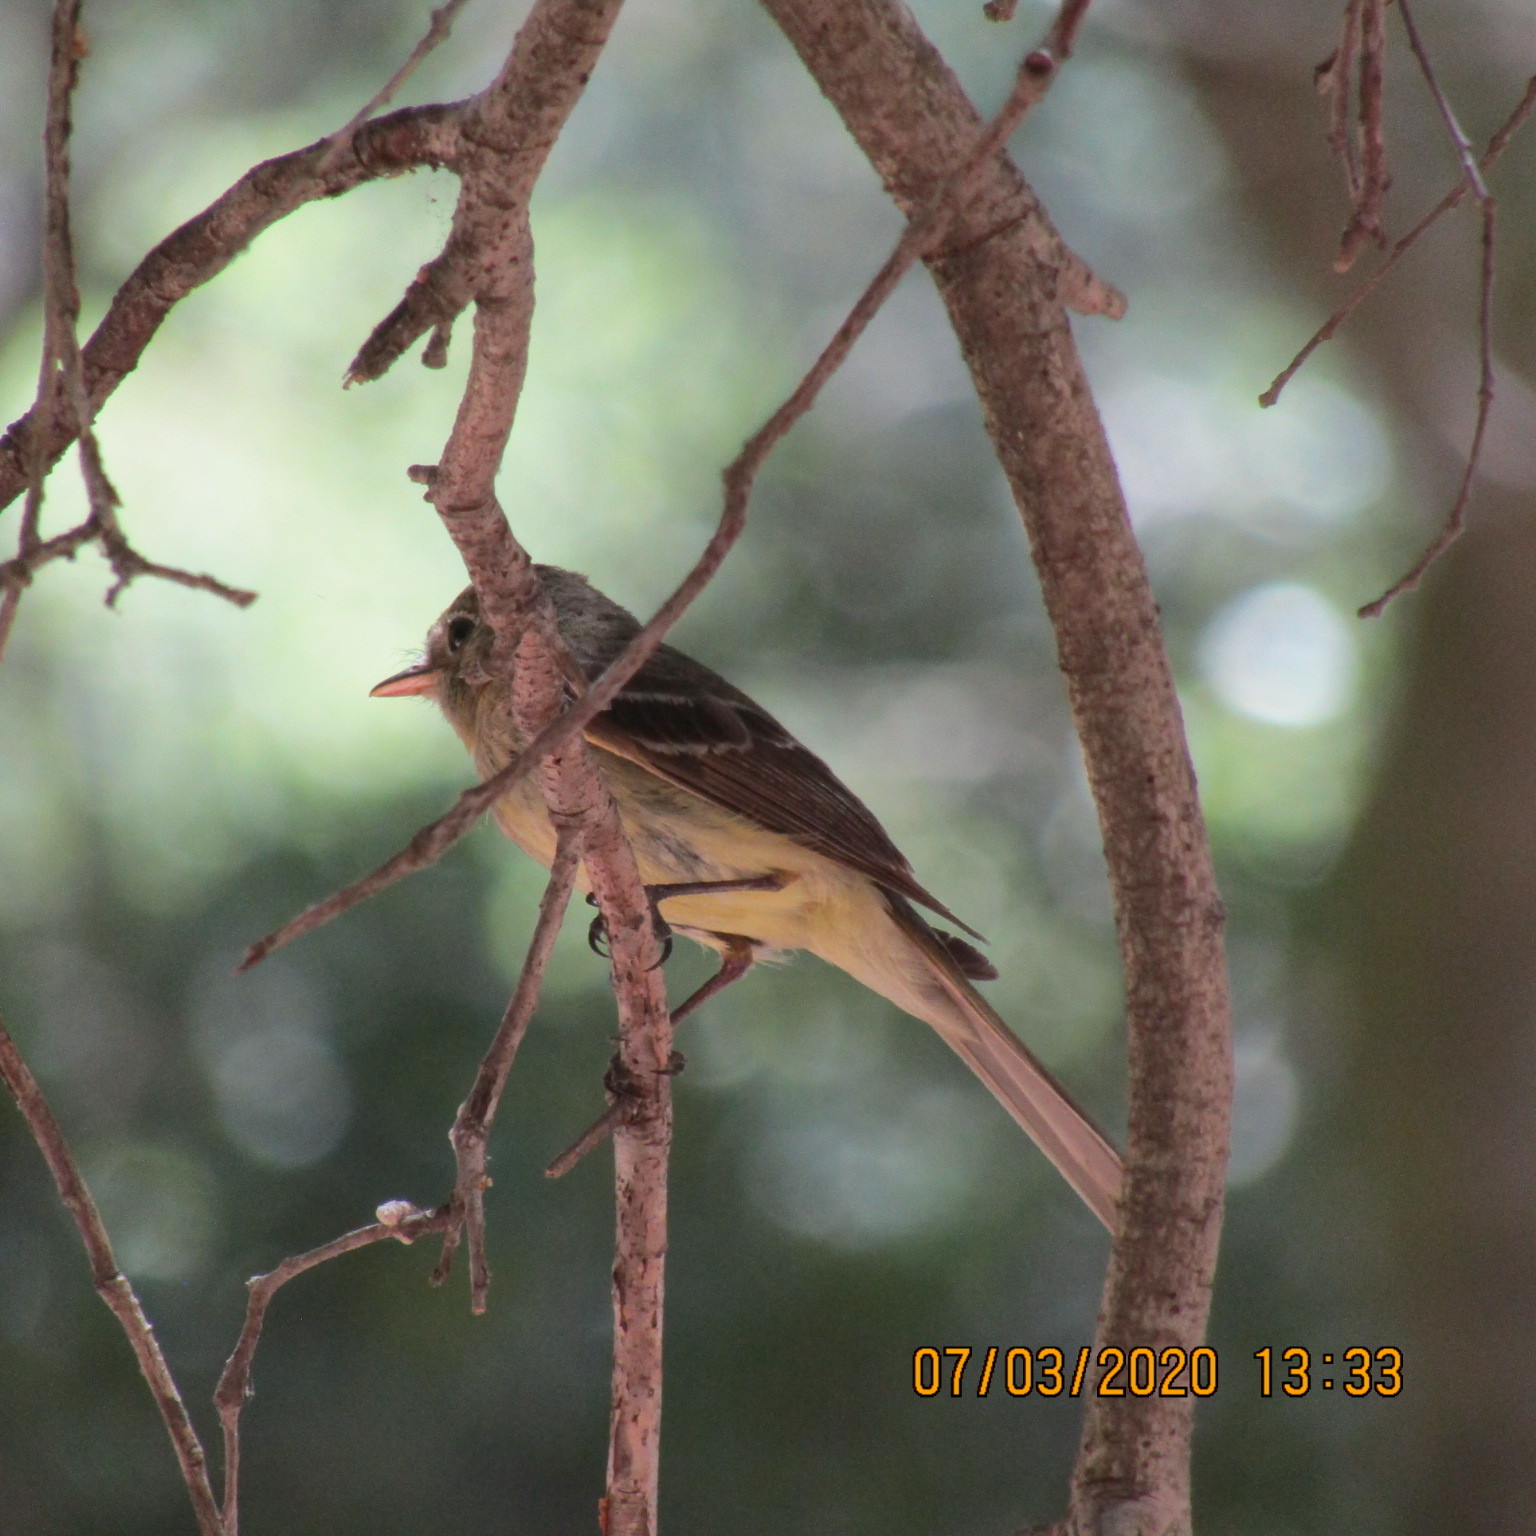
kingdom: Animalia
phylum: Chordata
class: Aves
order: Passeriformes
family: Tyrannidae
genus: Empidonax
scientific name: Empidonax difficilis
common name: Pacific-slope flycatcher
